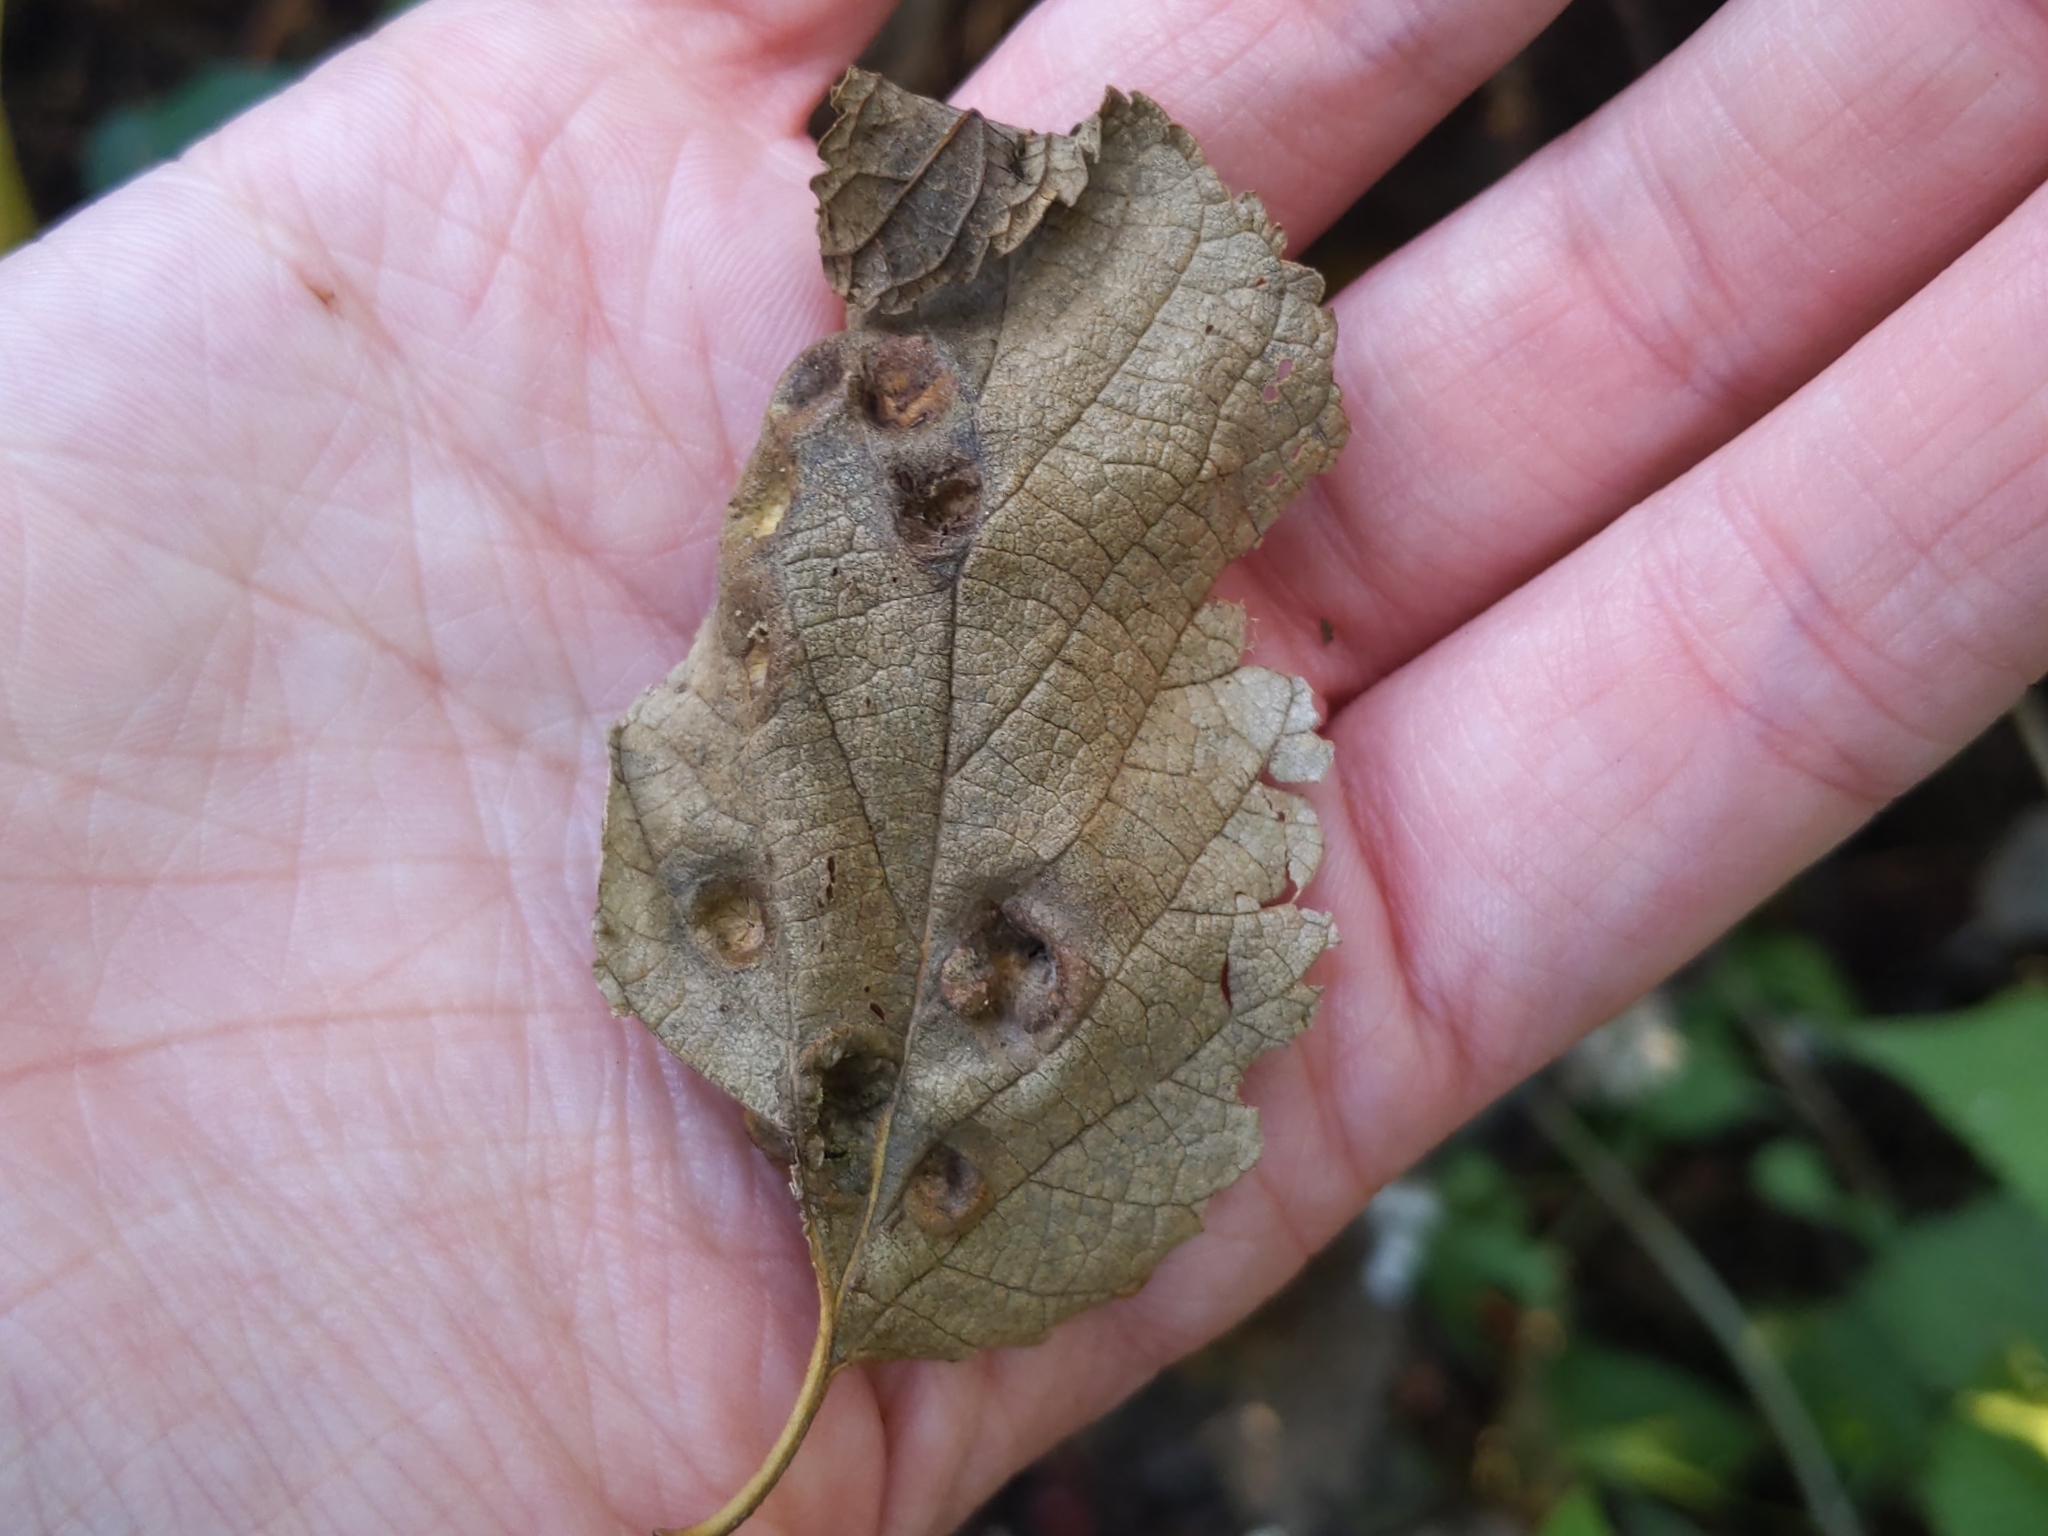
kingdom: Animalia
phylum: Arthropoda
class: Insecta
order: Hemiptera
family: Aphalaridae
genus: Pachypsylla
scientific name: Pachypsylla celtidismamma
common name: Hackberry nipplegall psyllid
